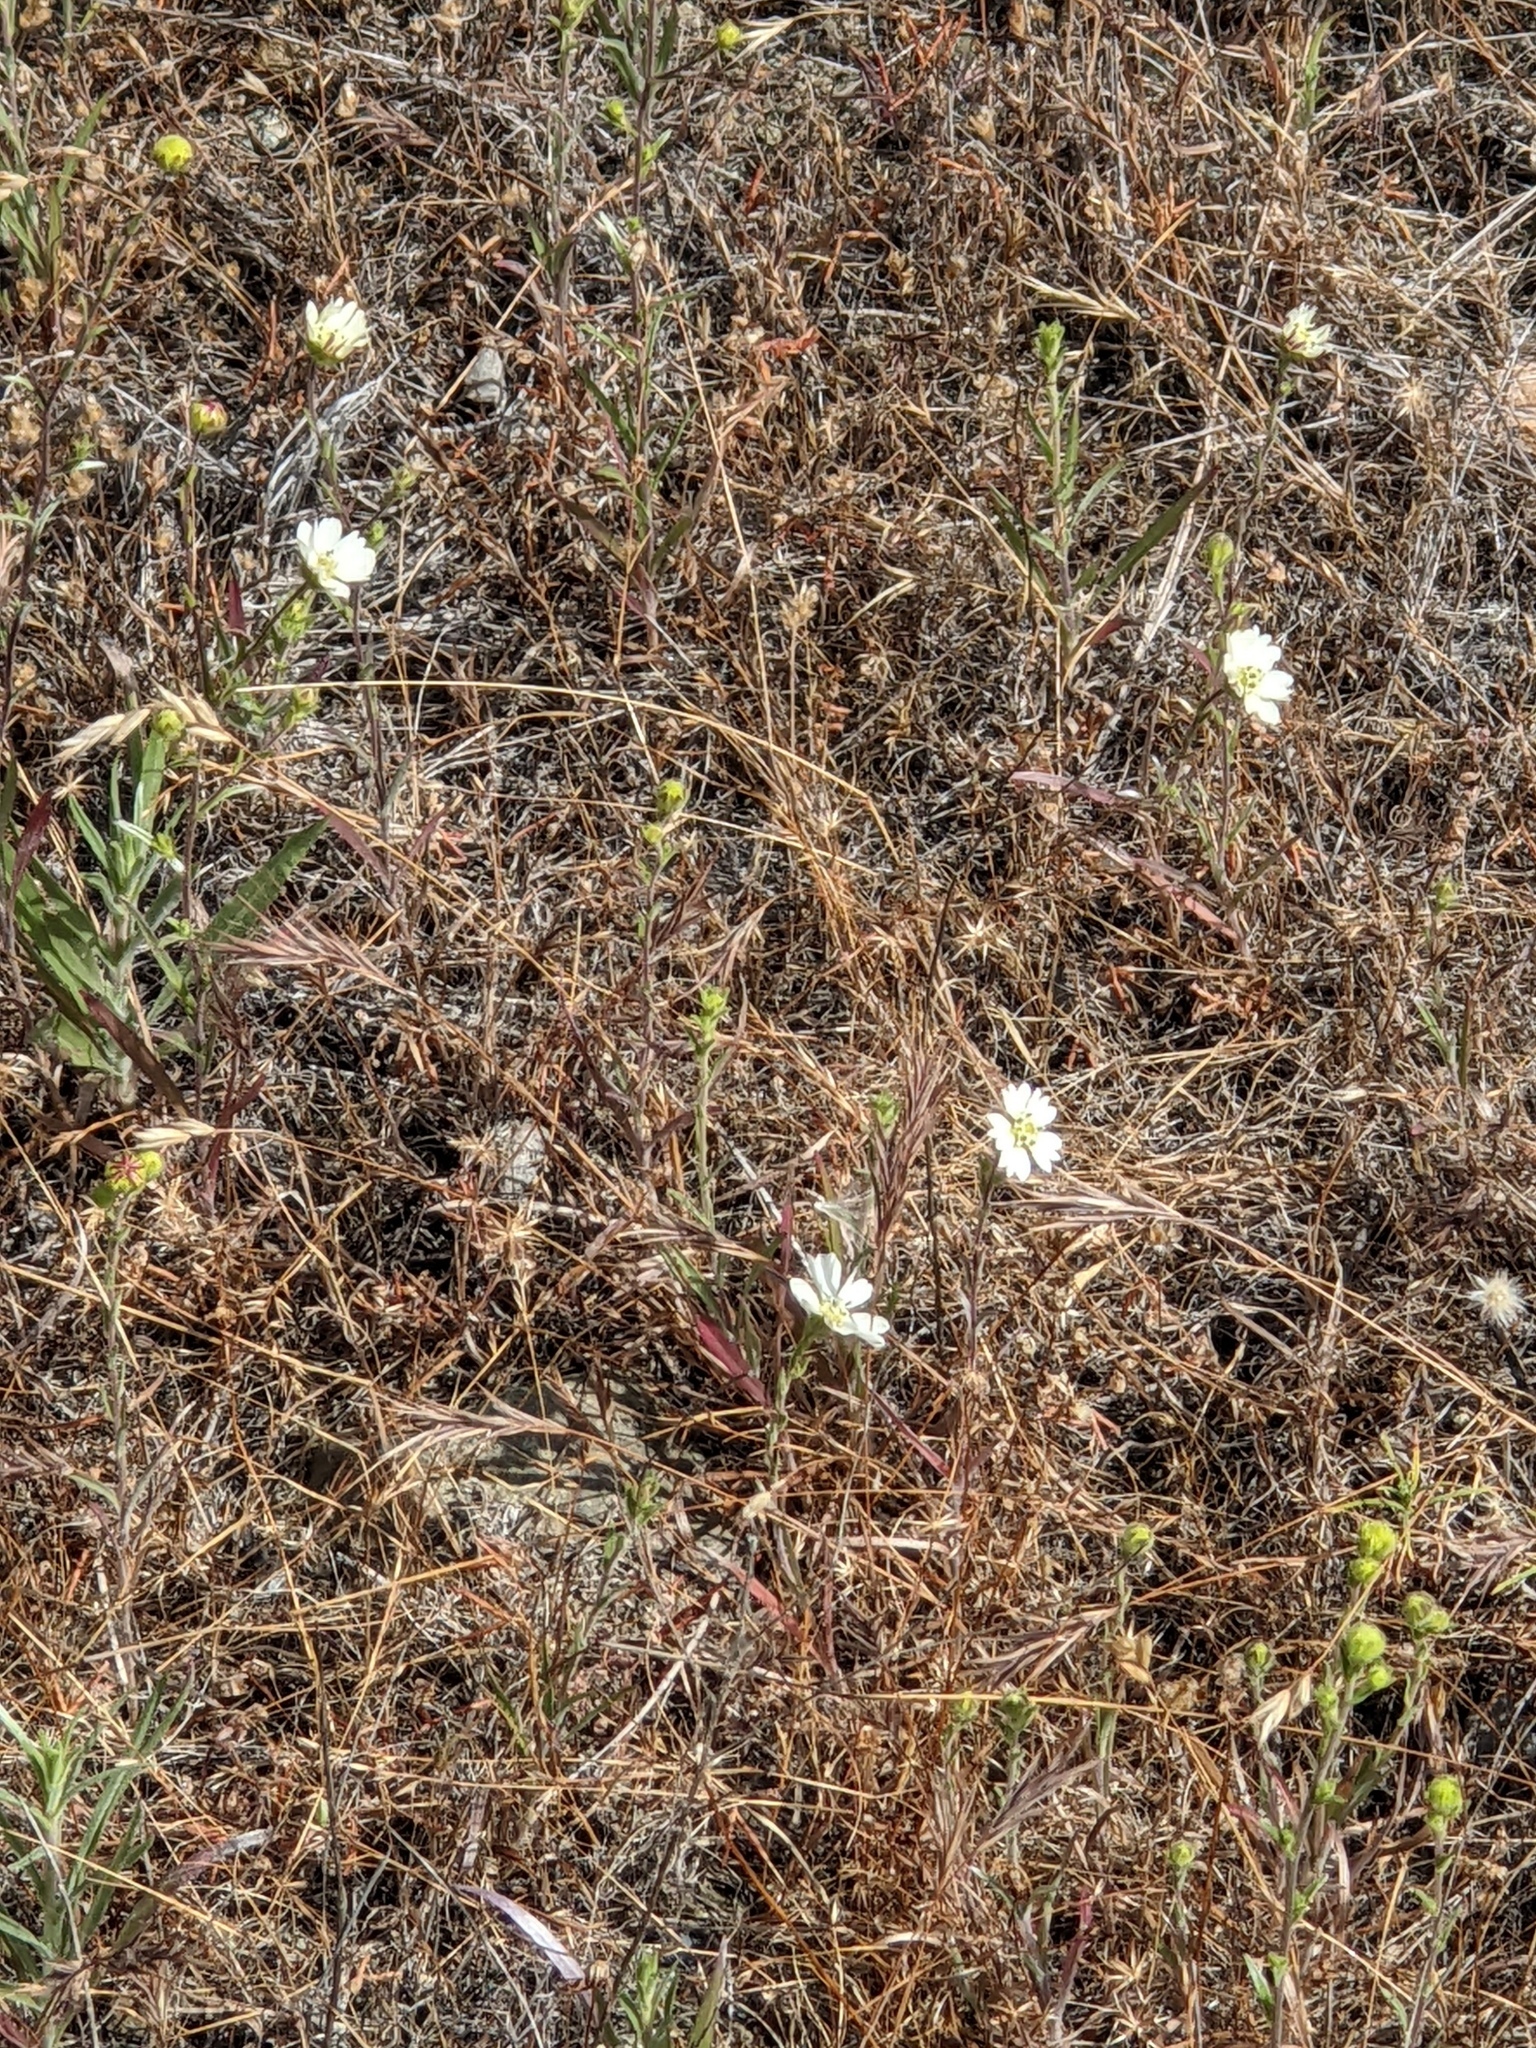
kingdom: Plantae
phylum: Tracheophyta
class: Magnoliopsida
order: Asterales
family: Asteraceae
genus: Hemizonia
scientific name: Hemizonia congesta
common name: Hayfield tarweed
